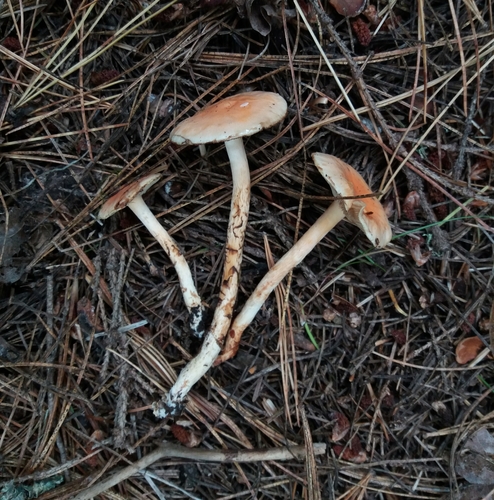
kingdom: Fungi
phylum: Basidiomycota
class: Agaricomycetes
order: Agaricales
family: Strophariaceae
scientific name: Strophariaceae
